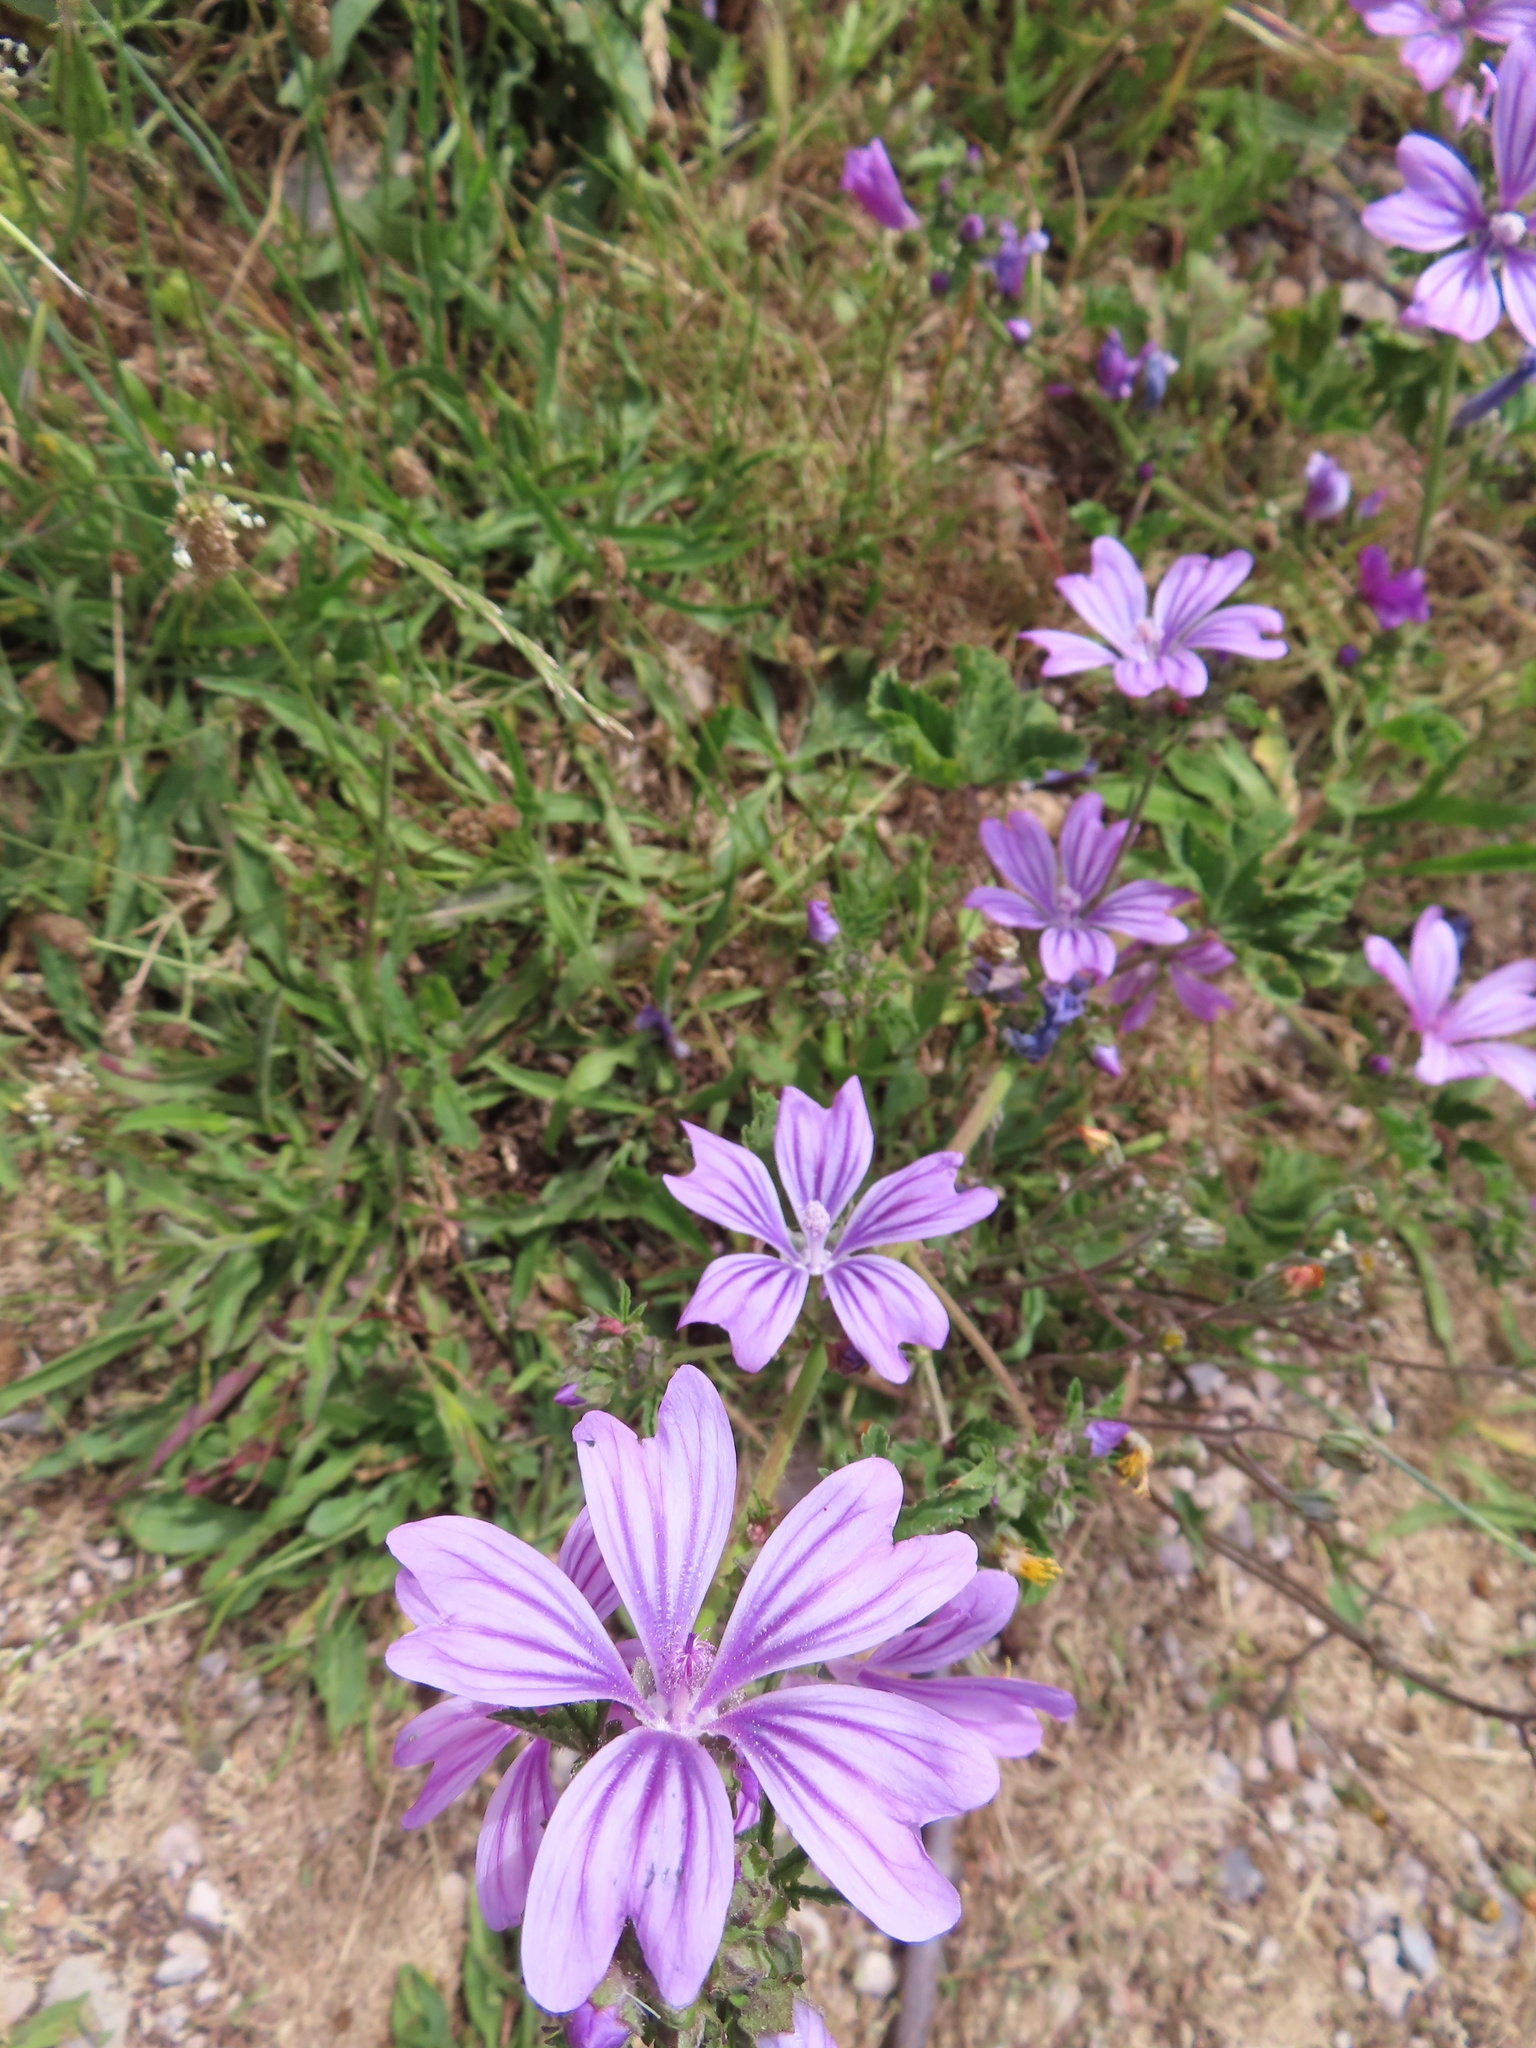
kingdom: Plantae
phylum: Tracheophyta
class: Magnoliopsida
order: Malvales
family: Malvaceae
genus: Malva
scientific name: Malva sylvestris
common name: Common mallow
